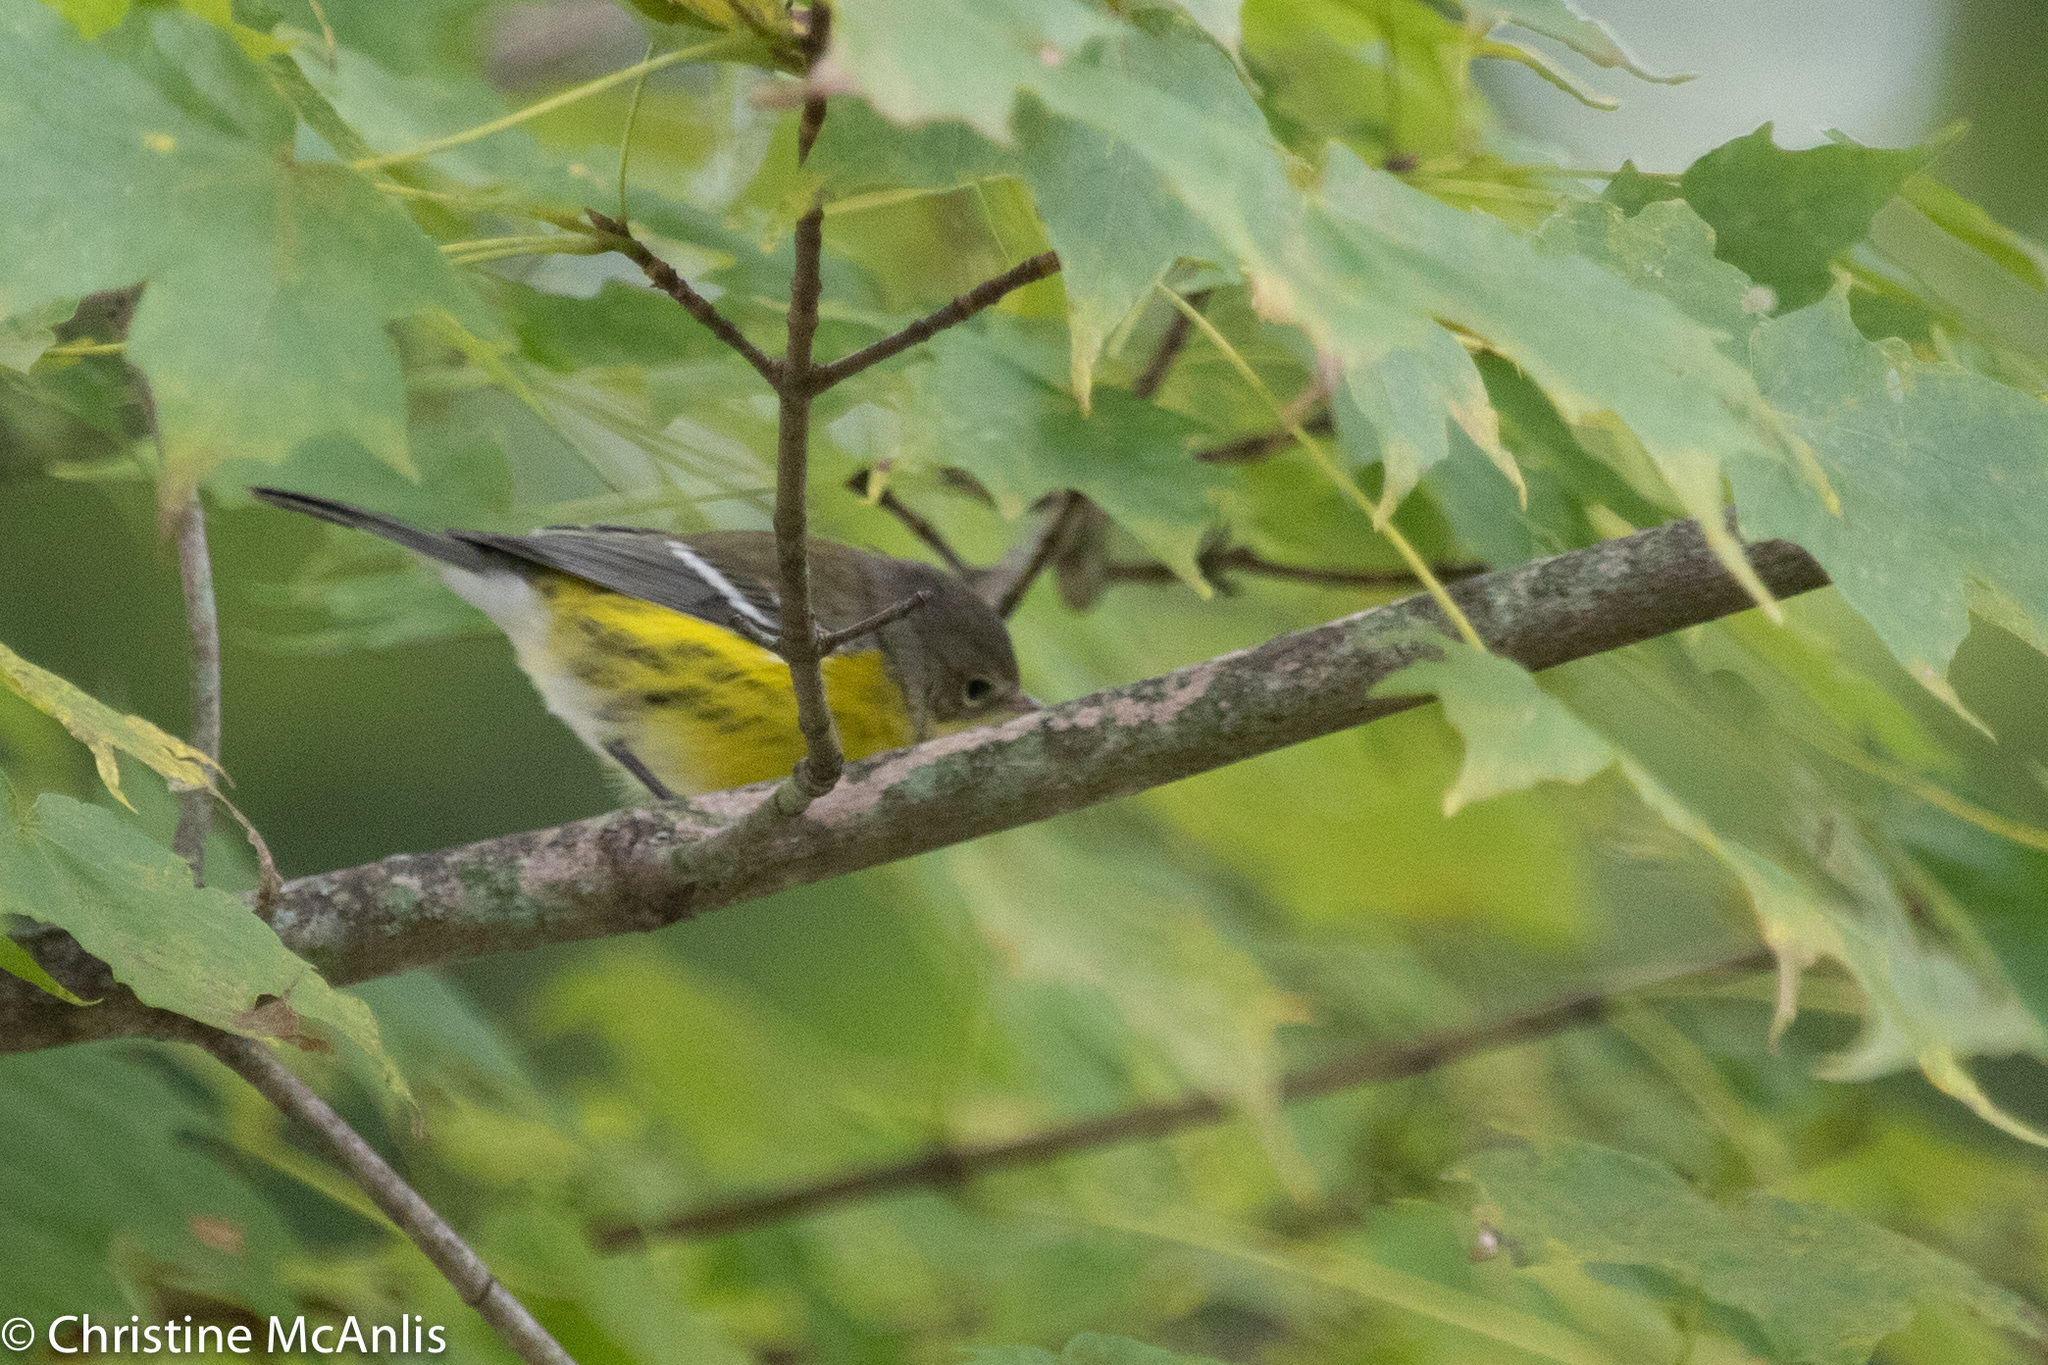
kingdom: Animalia
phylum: Chordata
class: Aves
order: Passeriformes
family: Parulidae
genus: Setophaga
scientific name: Setophaga magnolia
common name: Magnolia warbler
